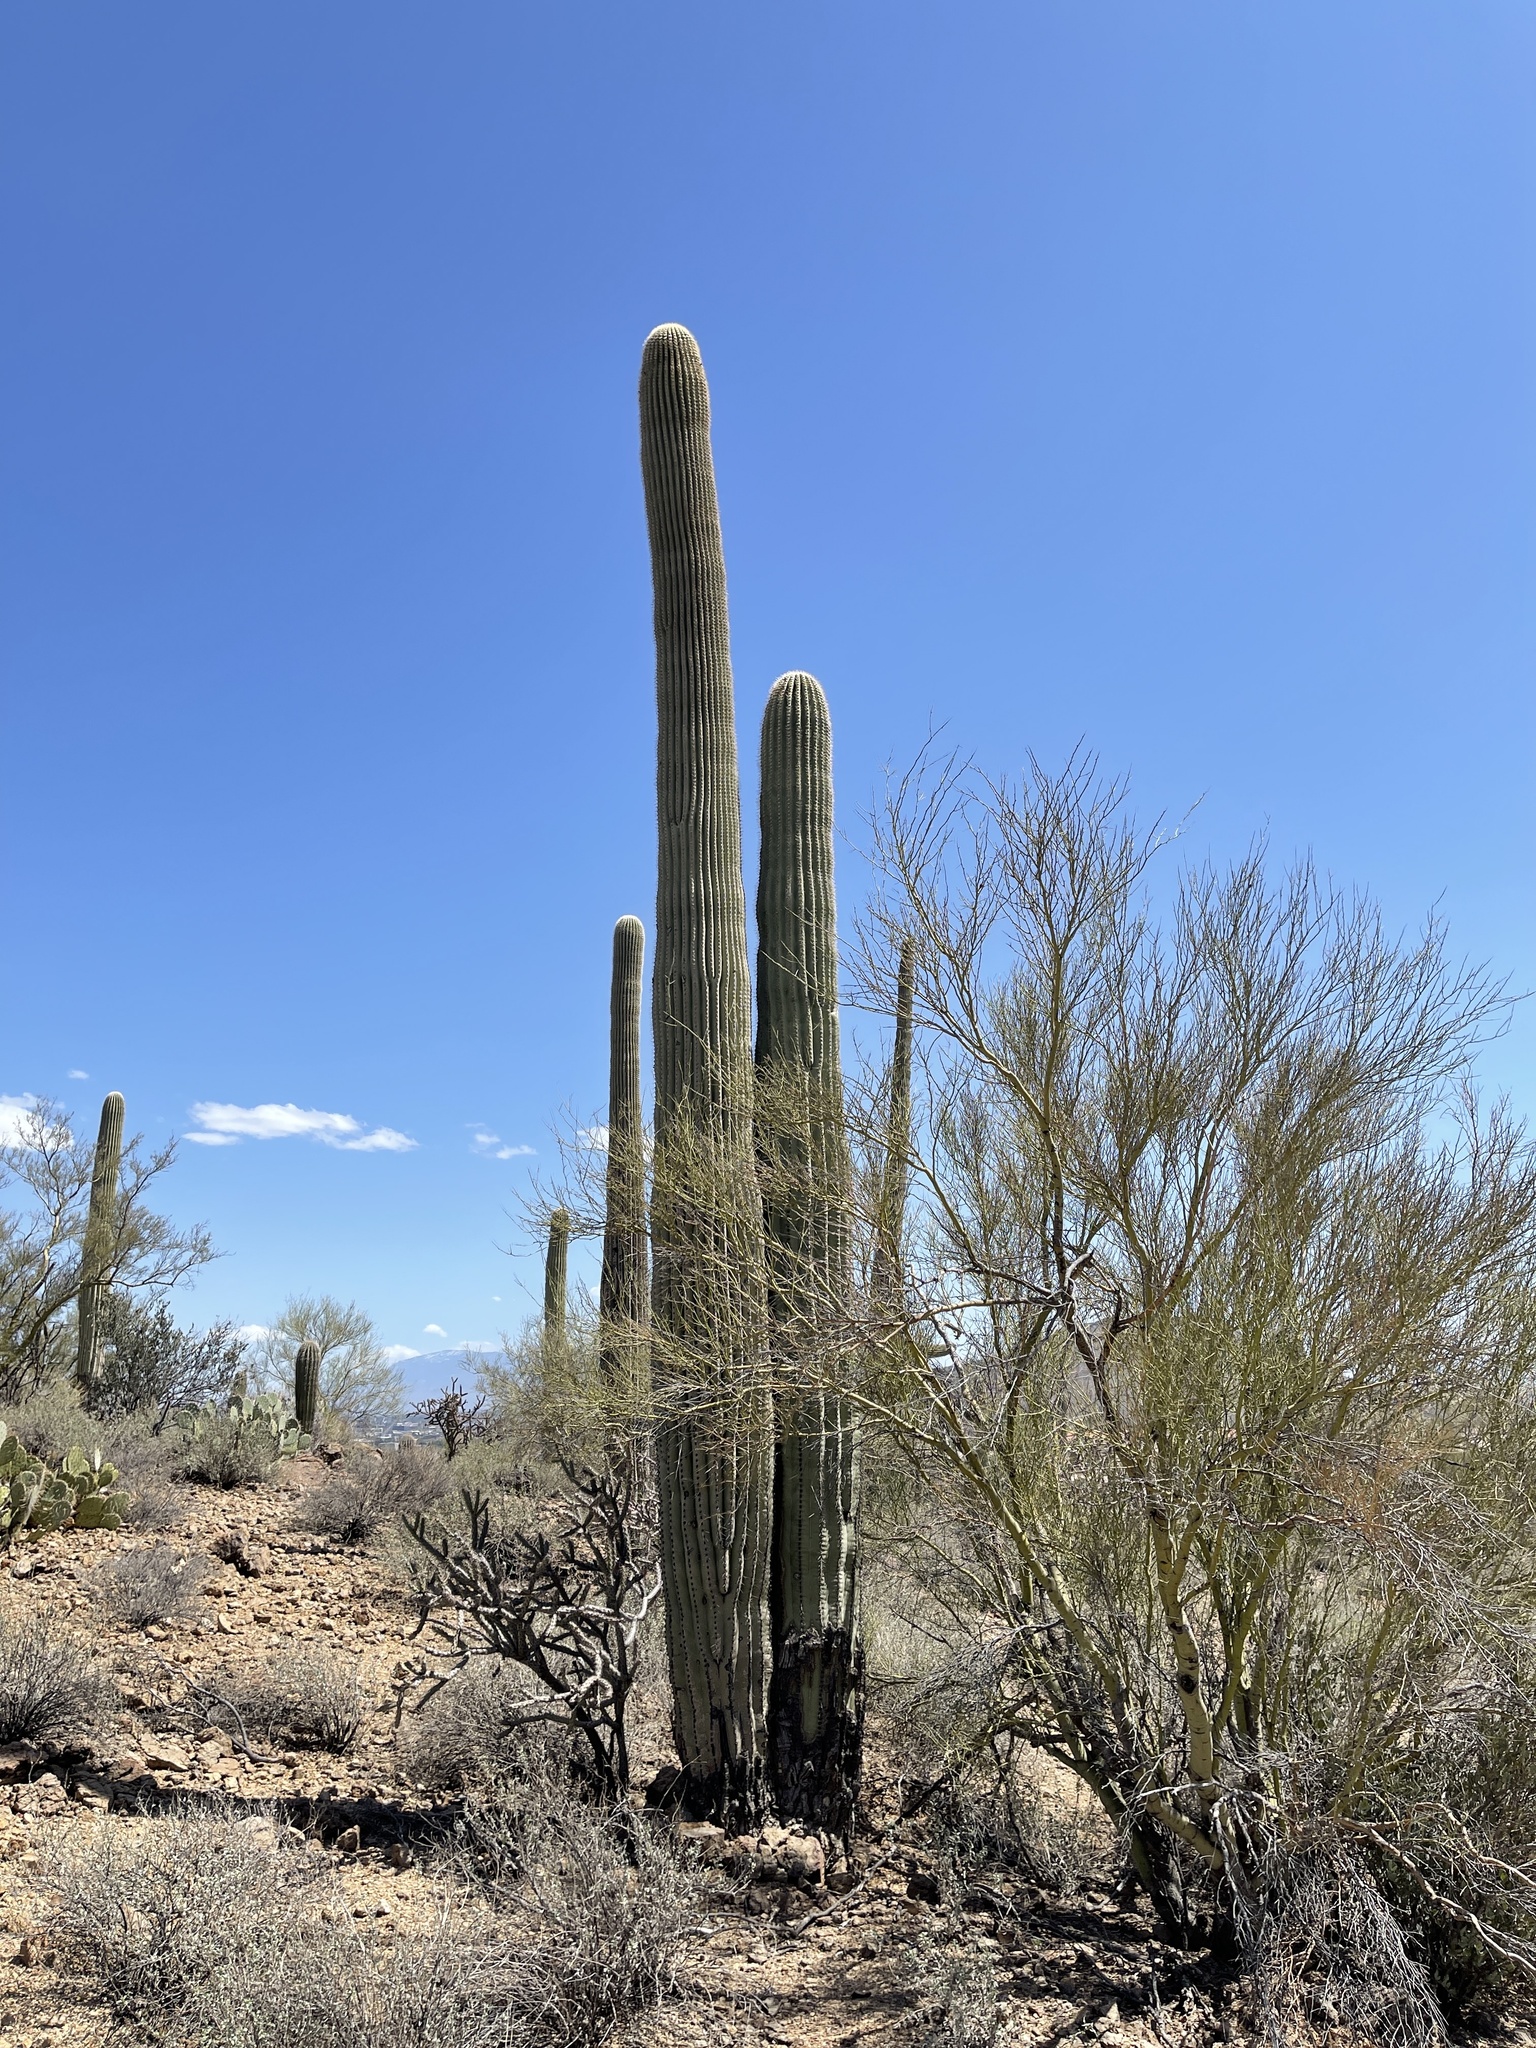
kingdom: Plantae
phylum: Tracheophyta
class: Magnoliopsida
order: Caryophyllales
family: Cactaceae
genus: Carnegiea
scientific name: Carnegiea gigantea
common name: Saguaro
